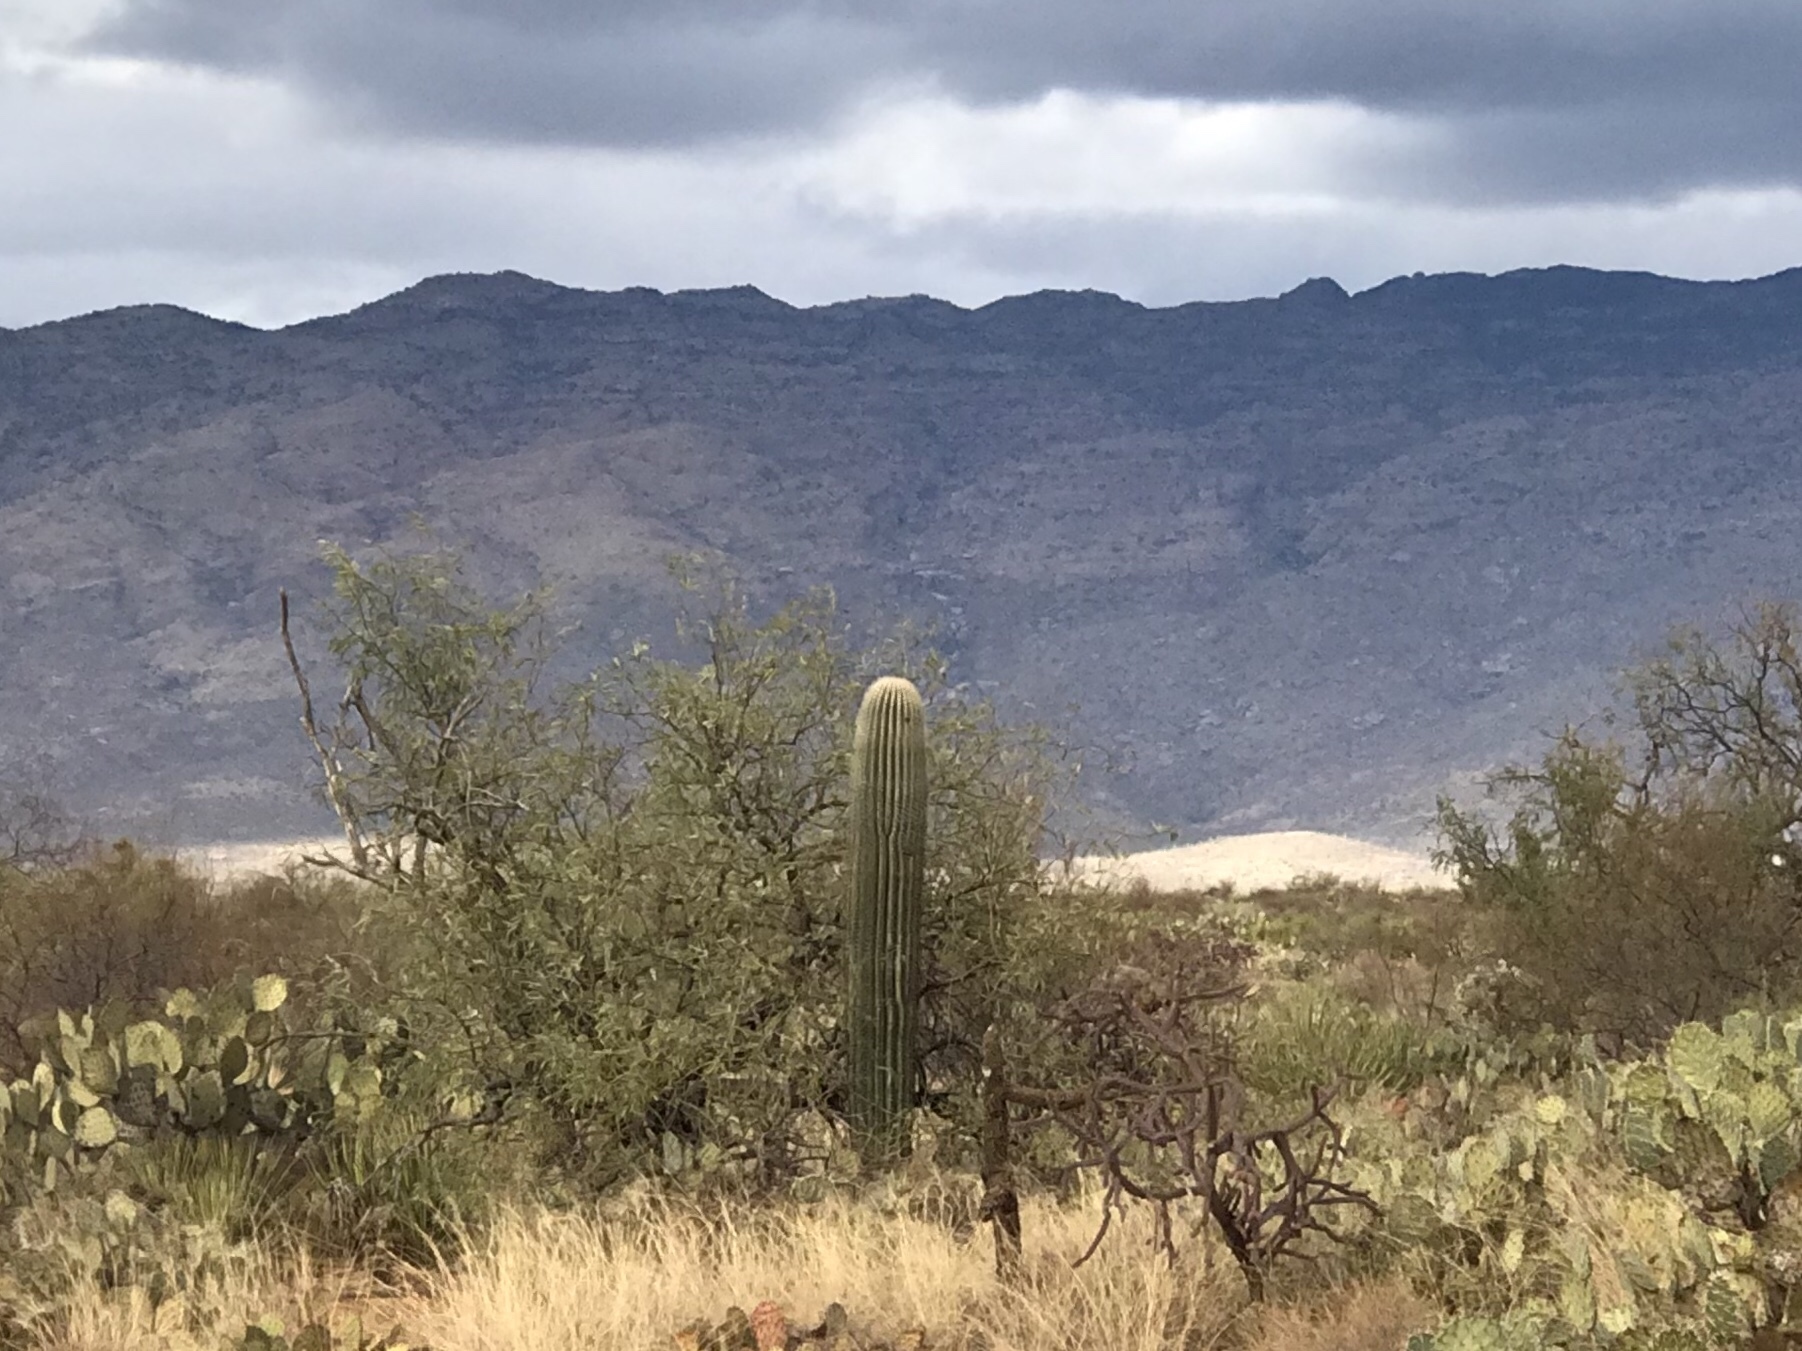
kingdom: Plantae
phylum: Tracheophyta
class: Magnoliopsida
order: Caryophyllales
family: Cactaceae
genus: Carnegiea
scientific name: Carnegiea gigantea
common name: Saguaro
